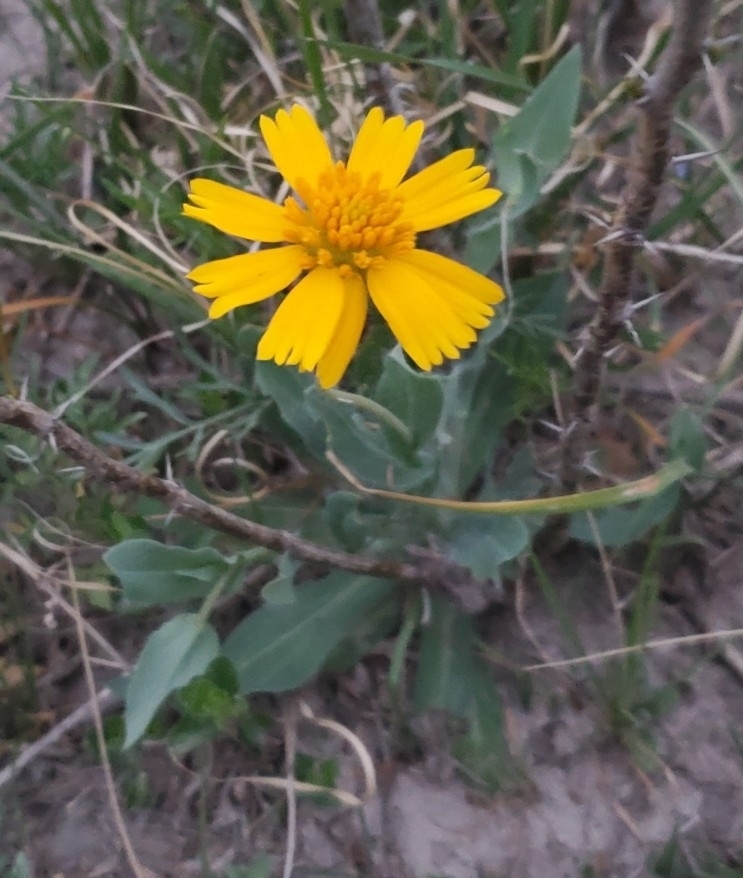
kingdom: Plantae
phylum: Tracheophyta
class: Magnoliopsida
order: Asterales
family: Asteraceae
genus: Amblyolepis
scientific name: Amblyolepis setigera
